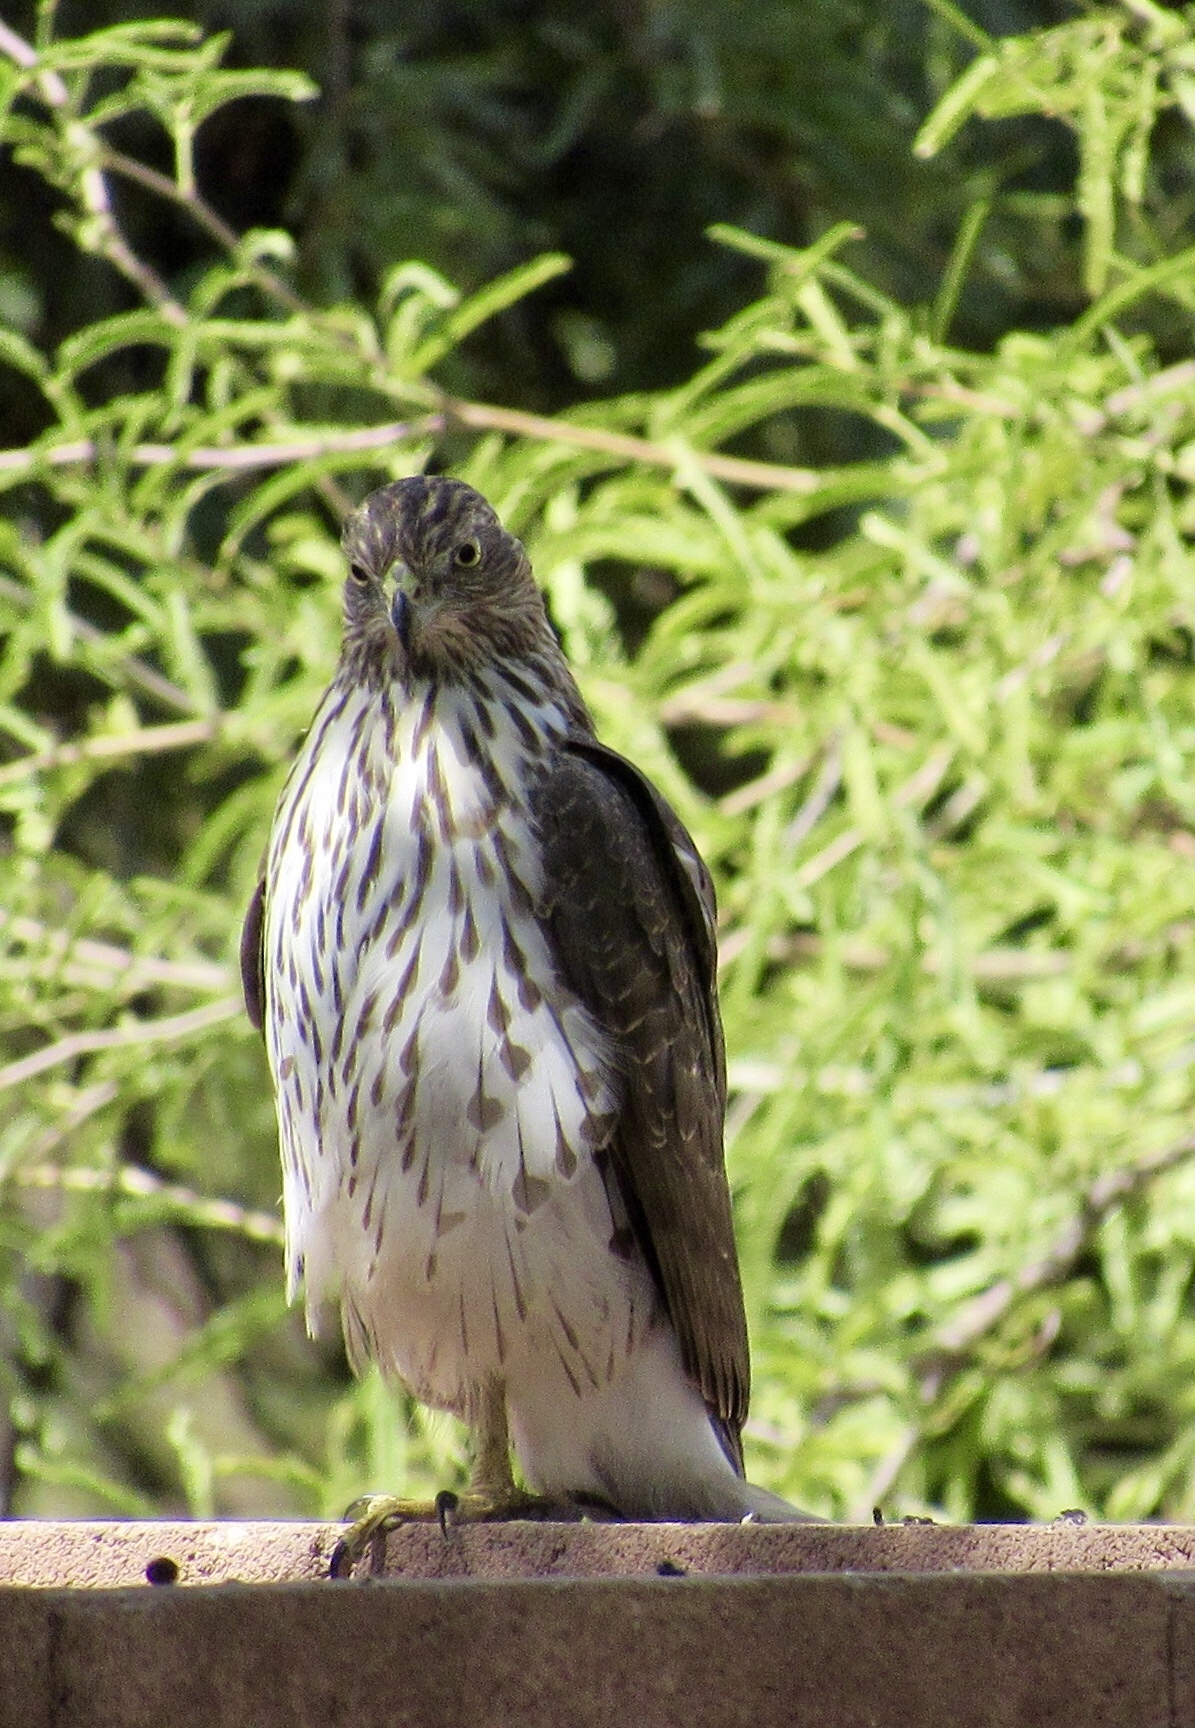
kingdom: Animalia
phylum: Chordata
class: Aves
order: Accipitriformes
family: Accipitridae
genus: Accipiter
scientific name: Accipiter cooperii
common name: Cooper's hawk
